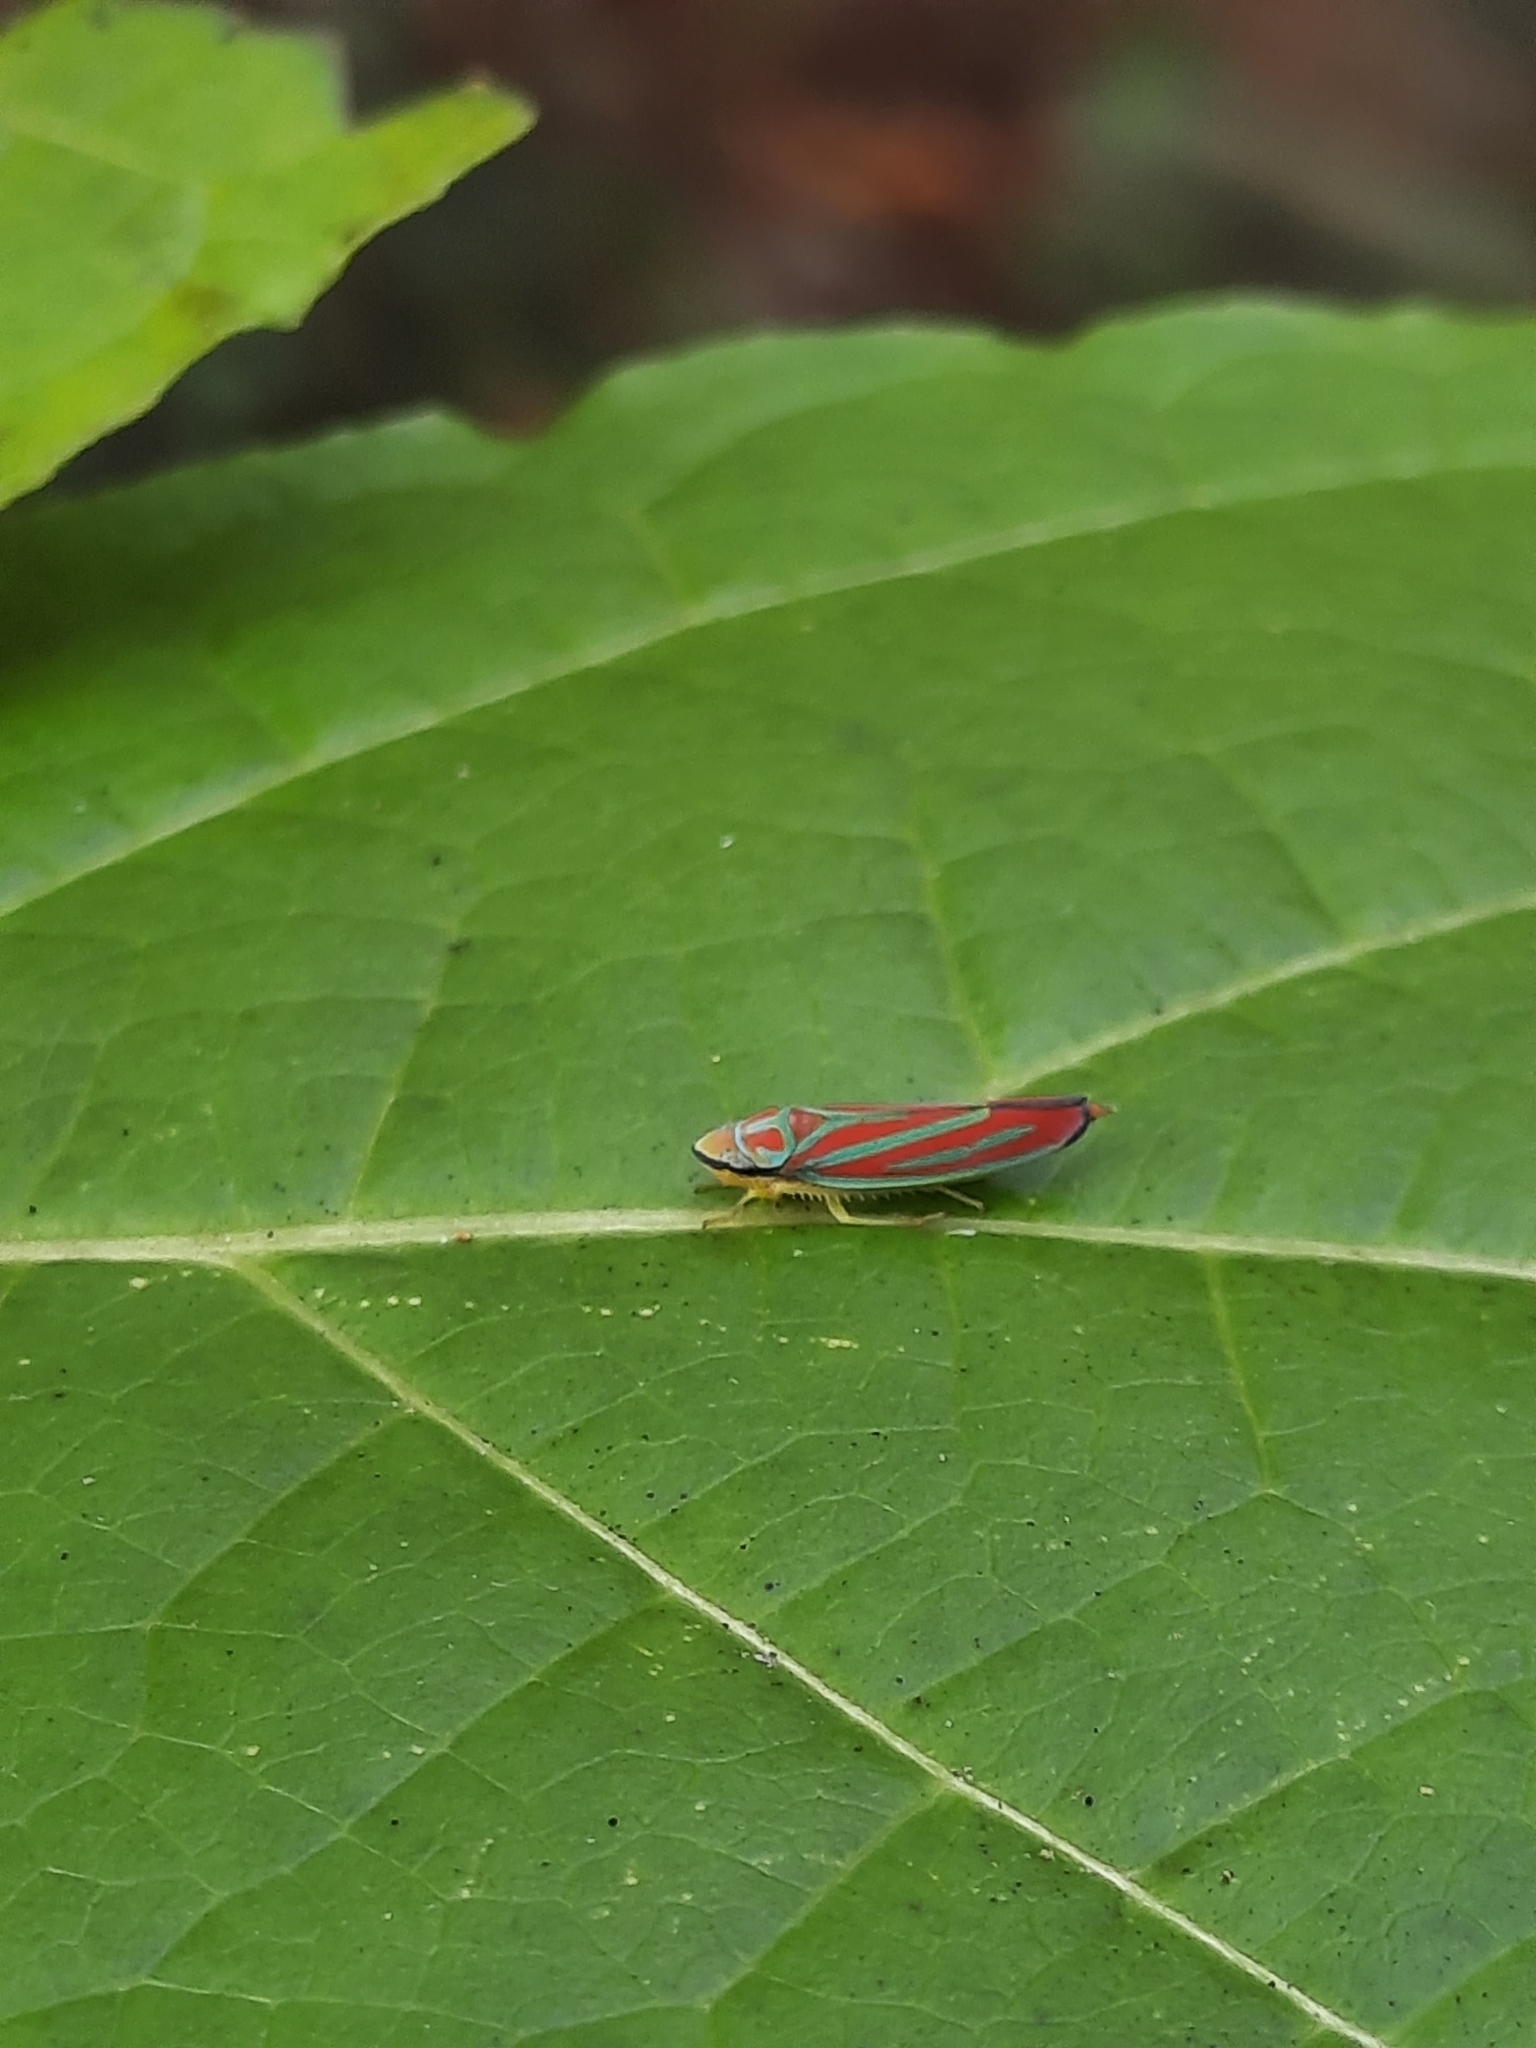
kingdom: Animalia
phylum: Arthropoda
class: Insecta
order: Hemiptera
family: Cicadellidae
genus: Graphocephala
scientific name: Graphocephala coccinea
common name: Candy-striped leafhopper
